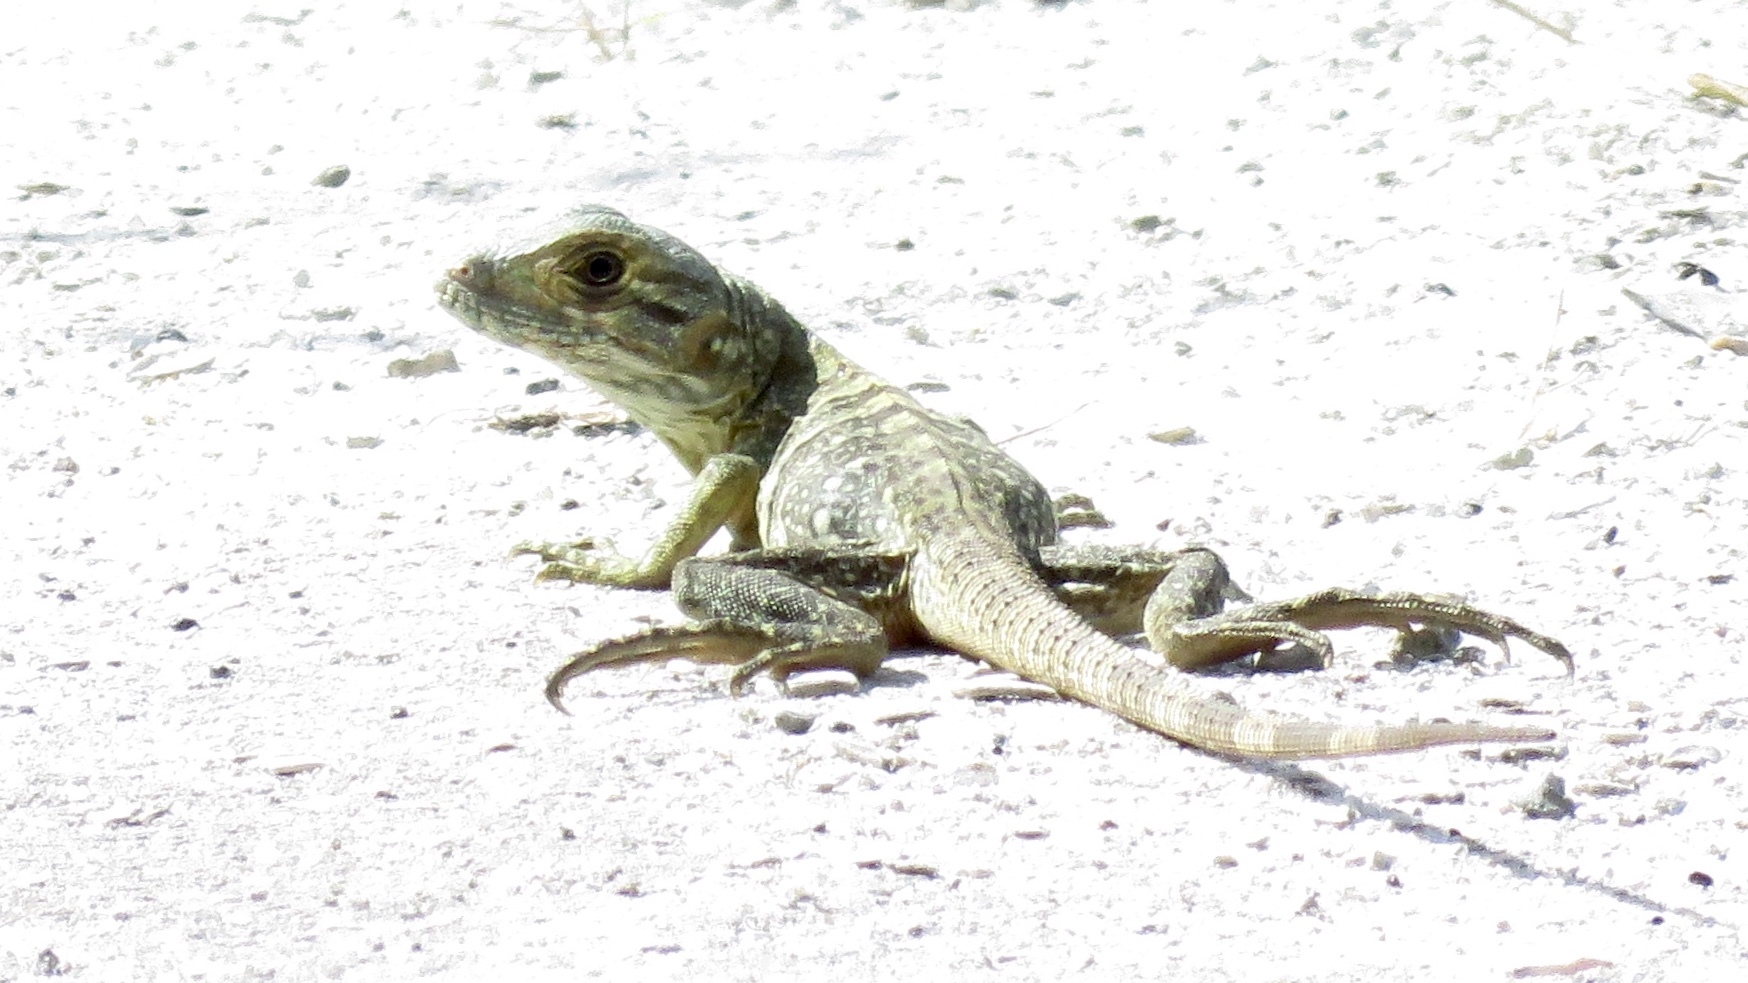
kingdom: Animalia
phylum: Chordata
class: Squamata
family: Iguanidae
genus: Ctenosaura
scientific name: Ctenosaura similis
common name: Black spiny-tailed iguana
